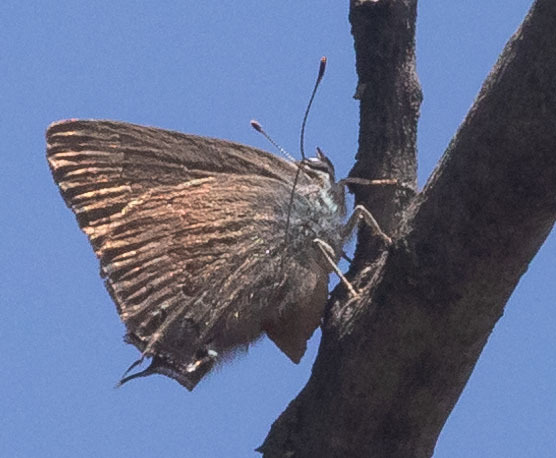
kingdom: Animalia
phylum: Arthropoda
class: Insecta
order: Lepidoptera
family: Lycaenidae
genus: Strymon
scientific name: Strymon saepium
